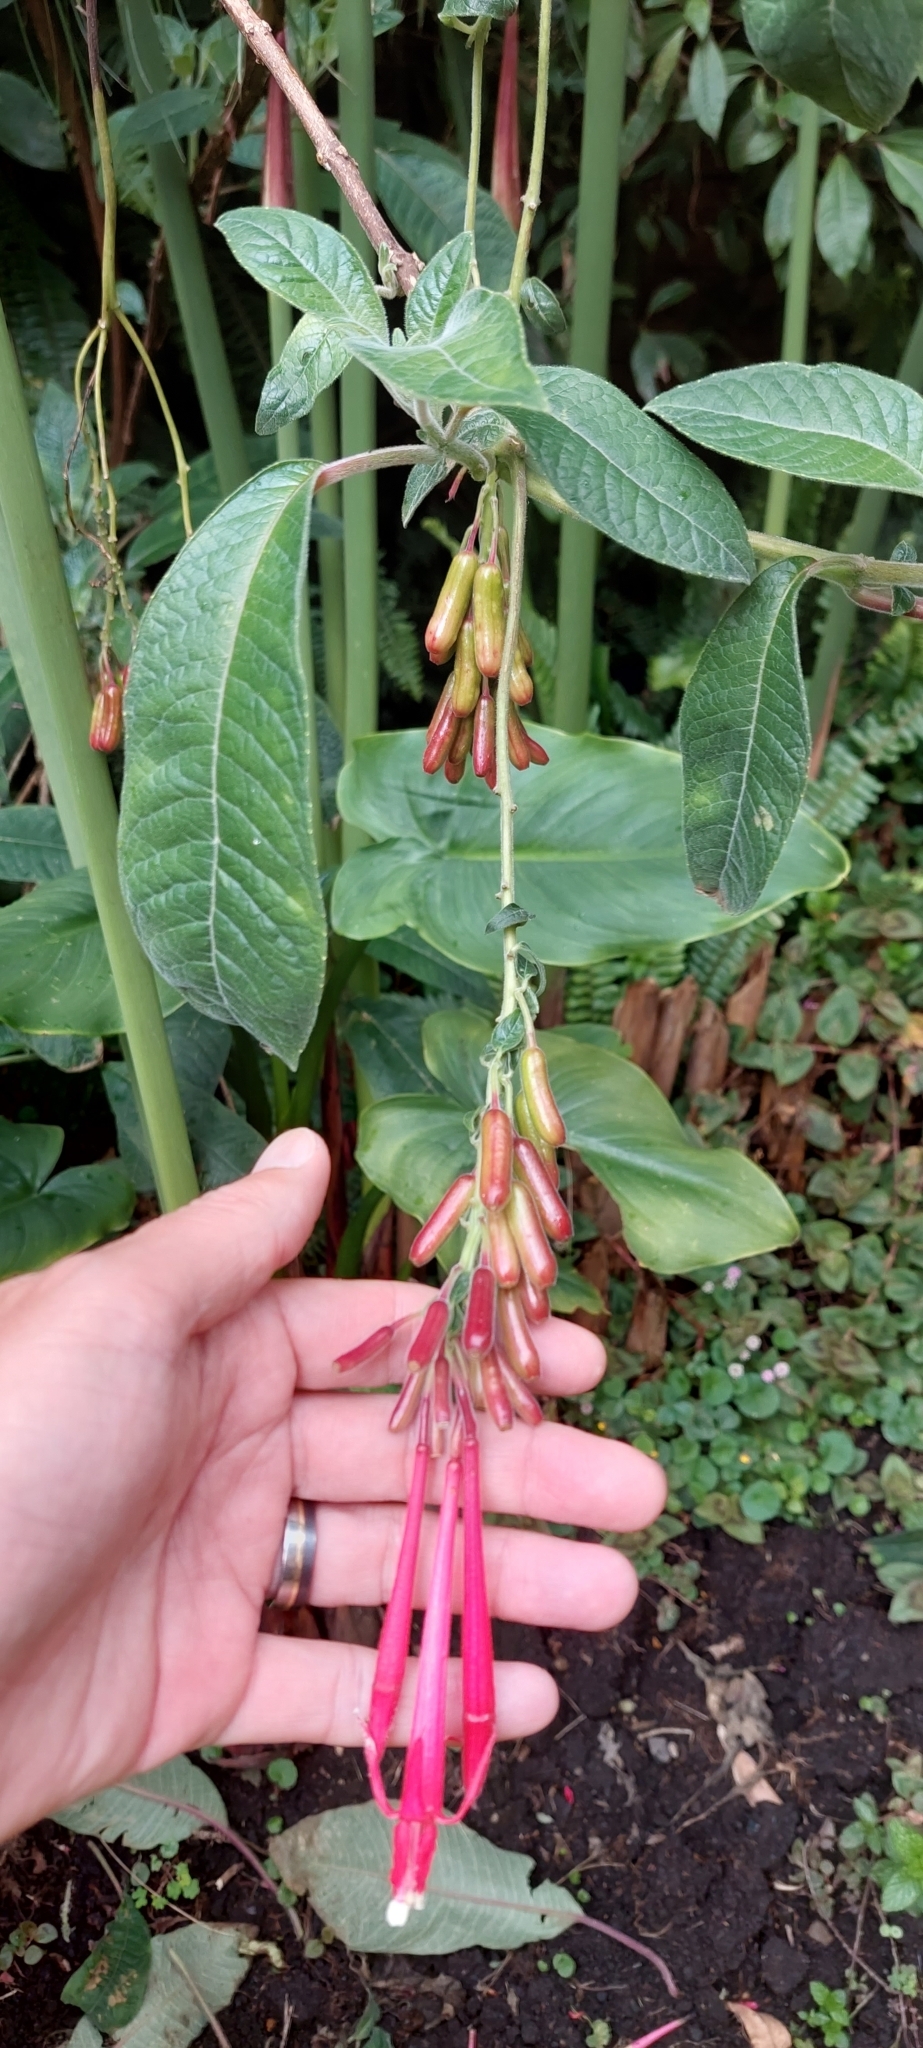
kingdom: Plantae
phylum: Tracheophyta
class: Magnoliopsida
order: Myrtales
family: Onagraceae
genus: Fuchsia
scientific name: Fuchsia boliviana
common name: Bolivian fuchsia
